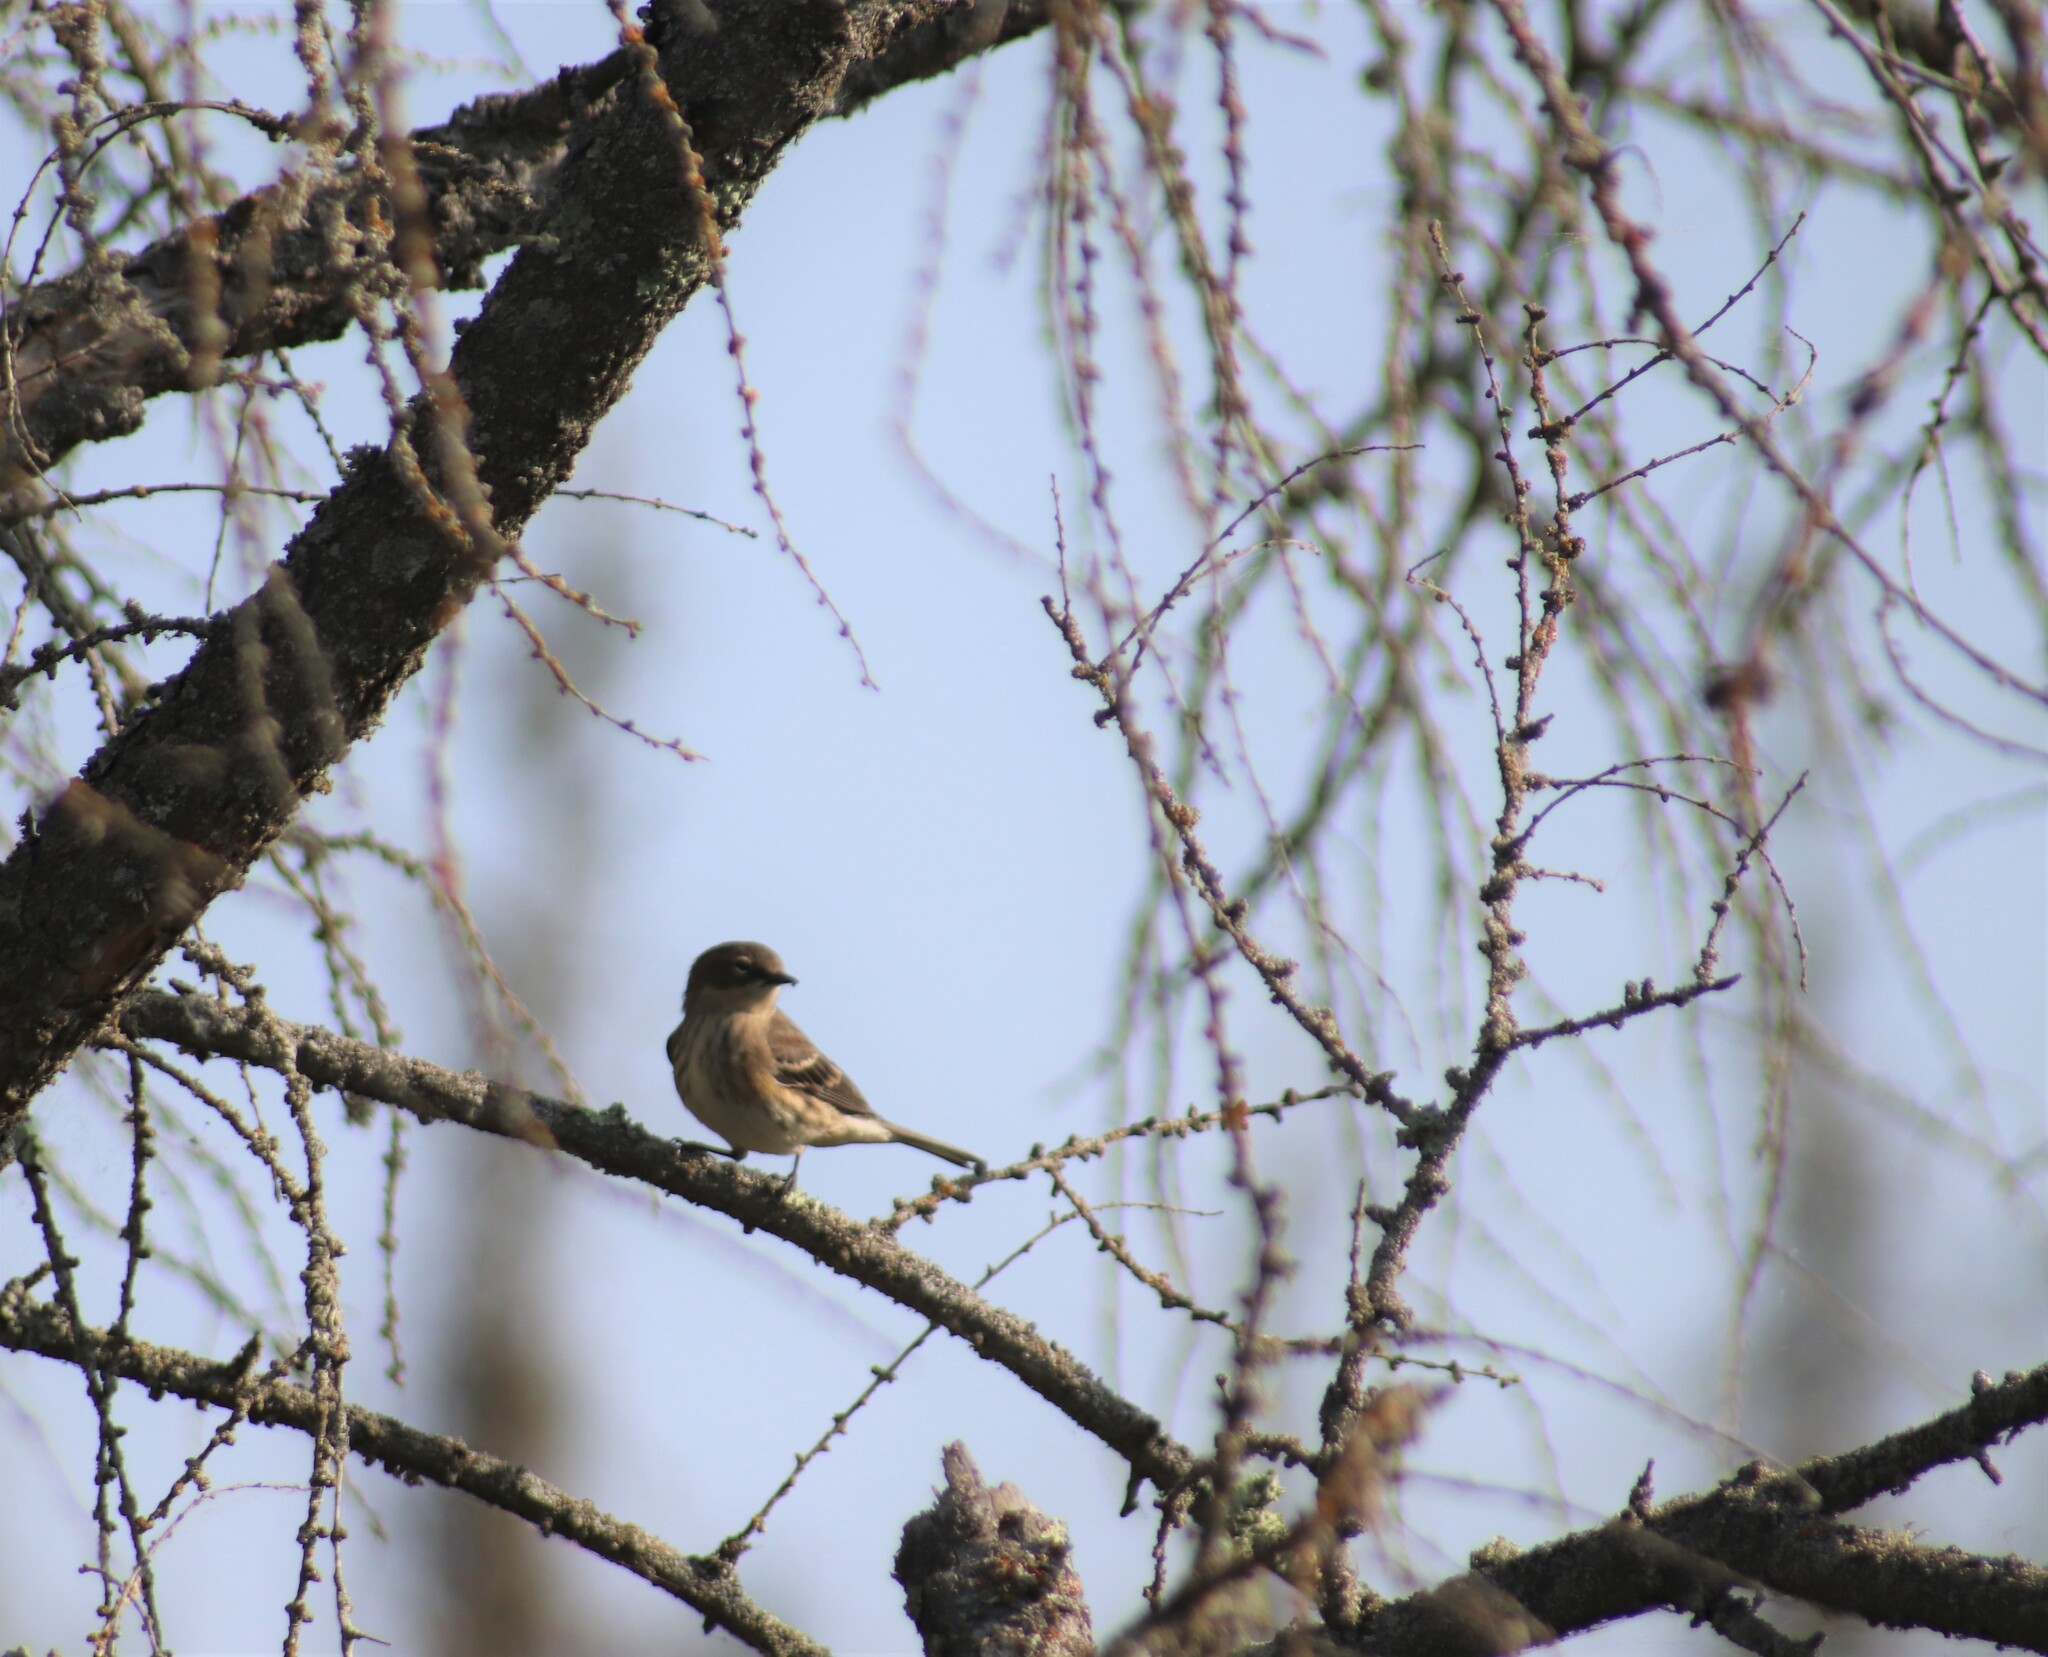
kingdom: Animalia
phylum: Chordata
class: Aves
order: Passeriformes
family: Parulidae
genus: Setophaga
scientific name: Setophaga coronata
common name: Myrtle warbler
